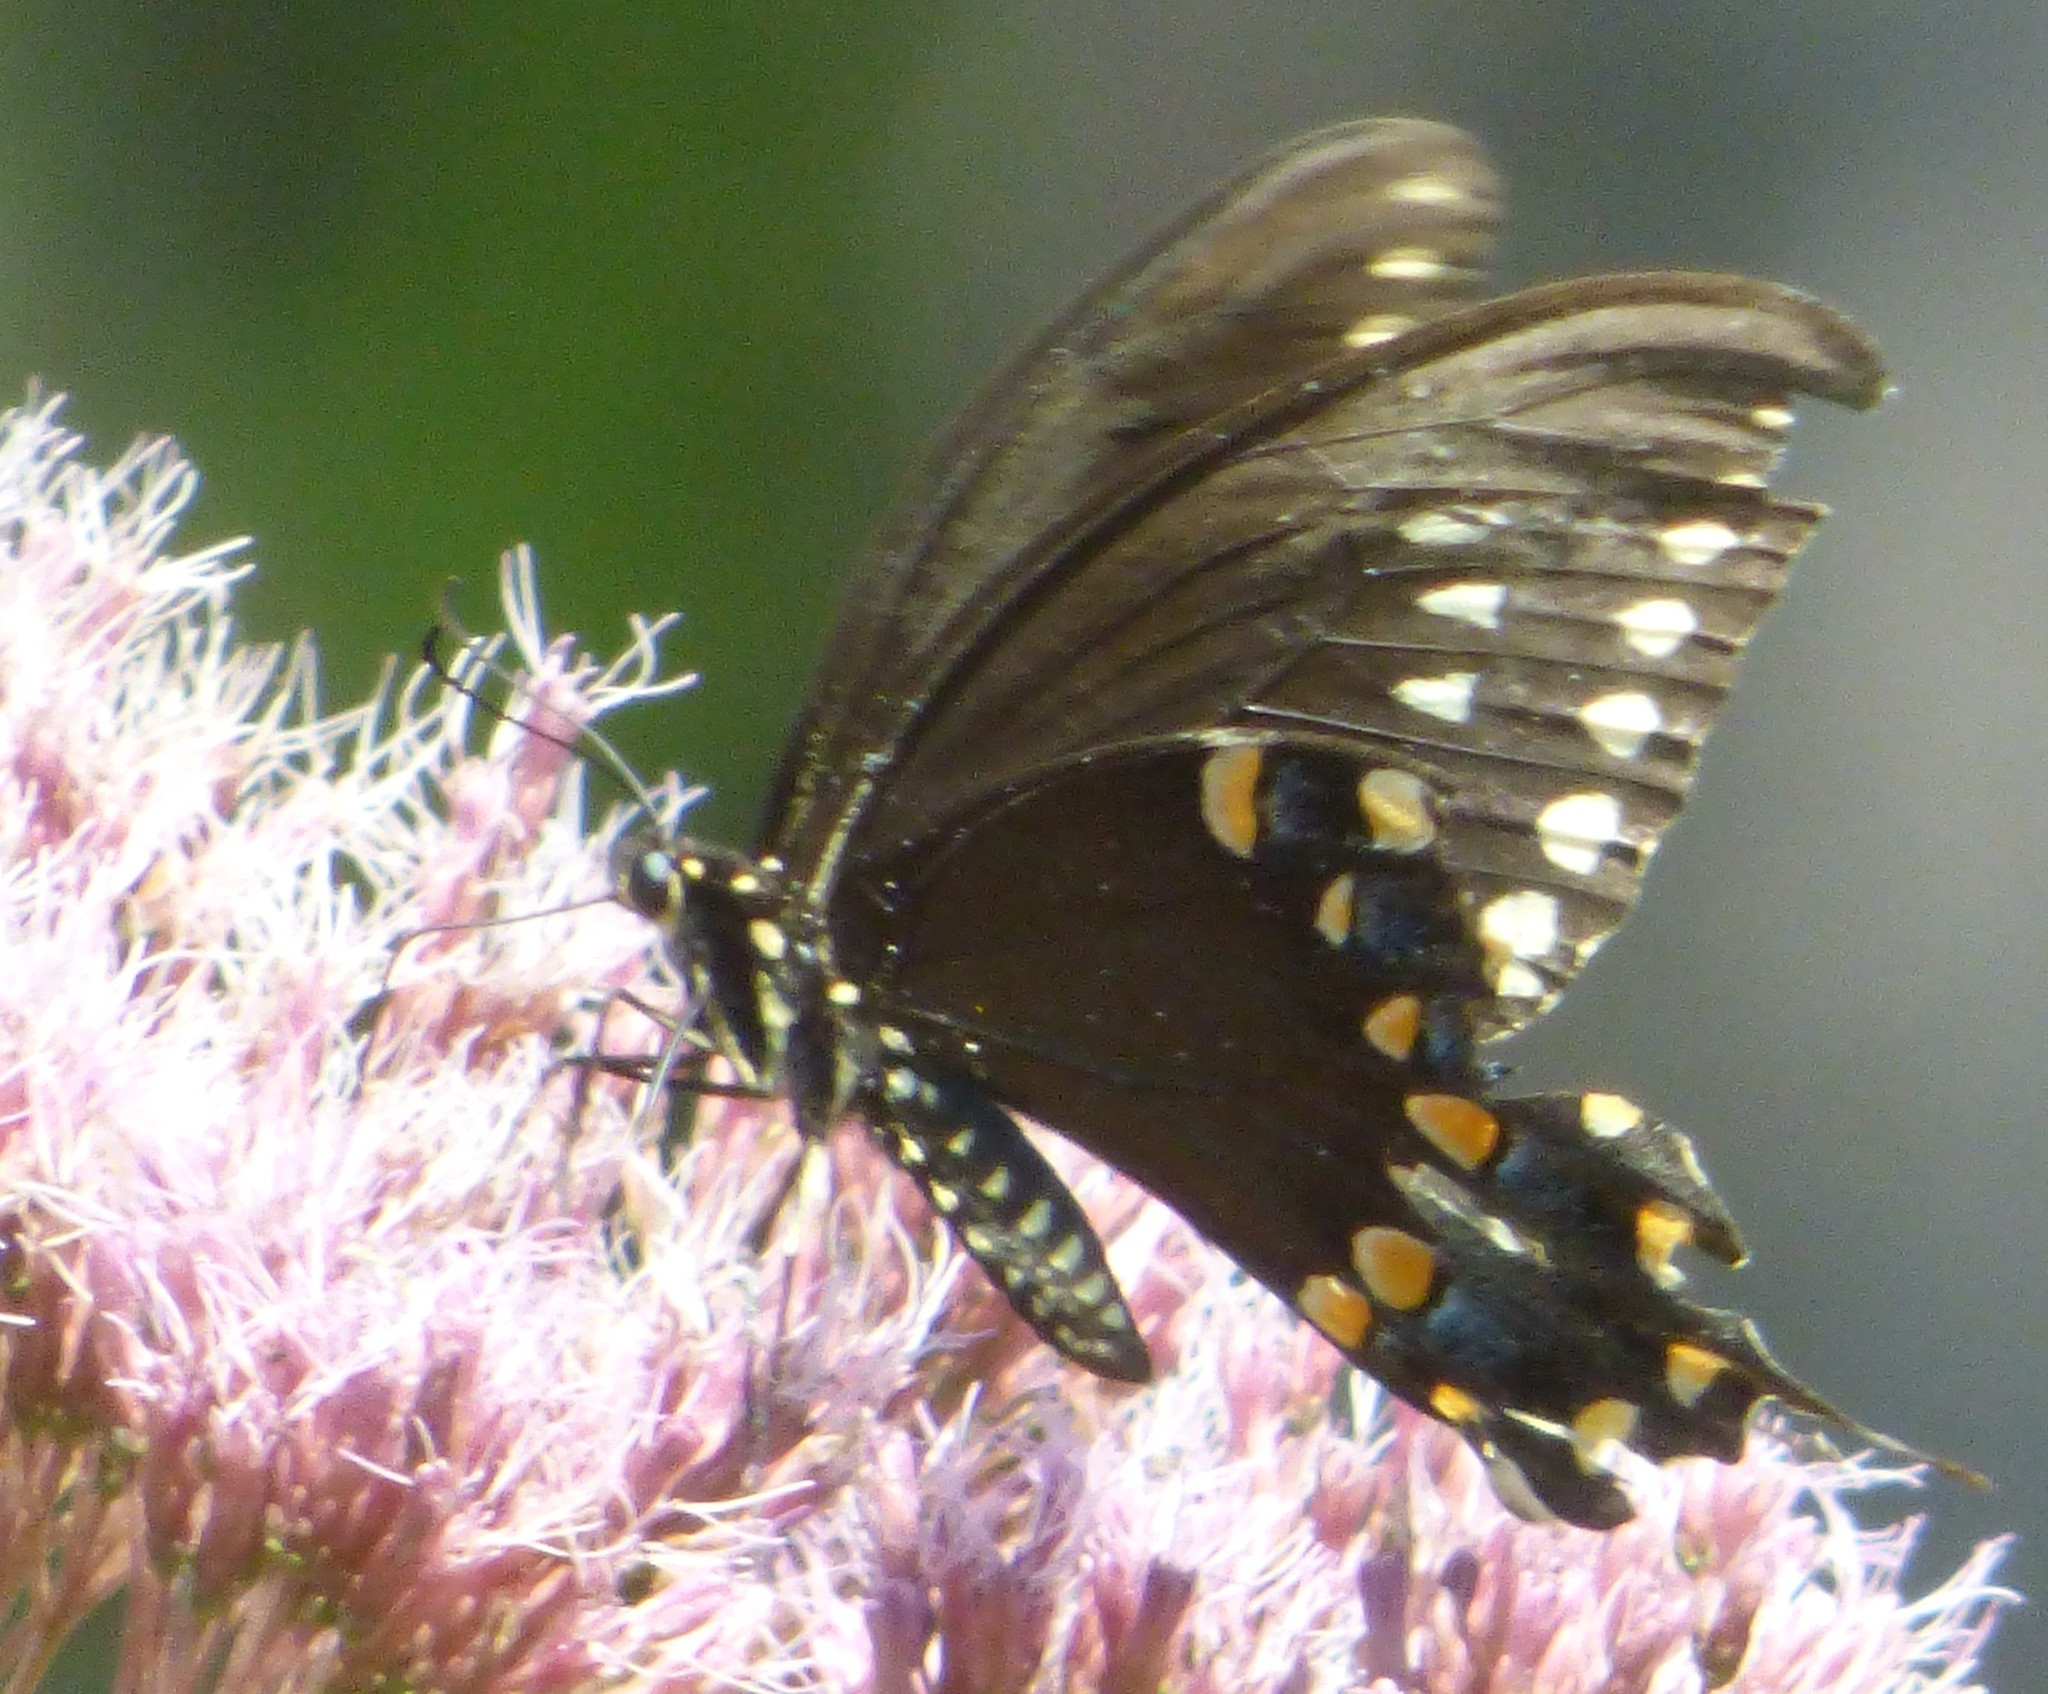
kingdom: Animalia
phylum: Arthropoda
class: Insecta
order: Lepidoptera
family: Papilionidae
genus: Papilio
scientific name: Papilio troilus
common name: Spicebush swallowtail
